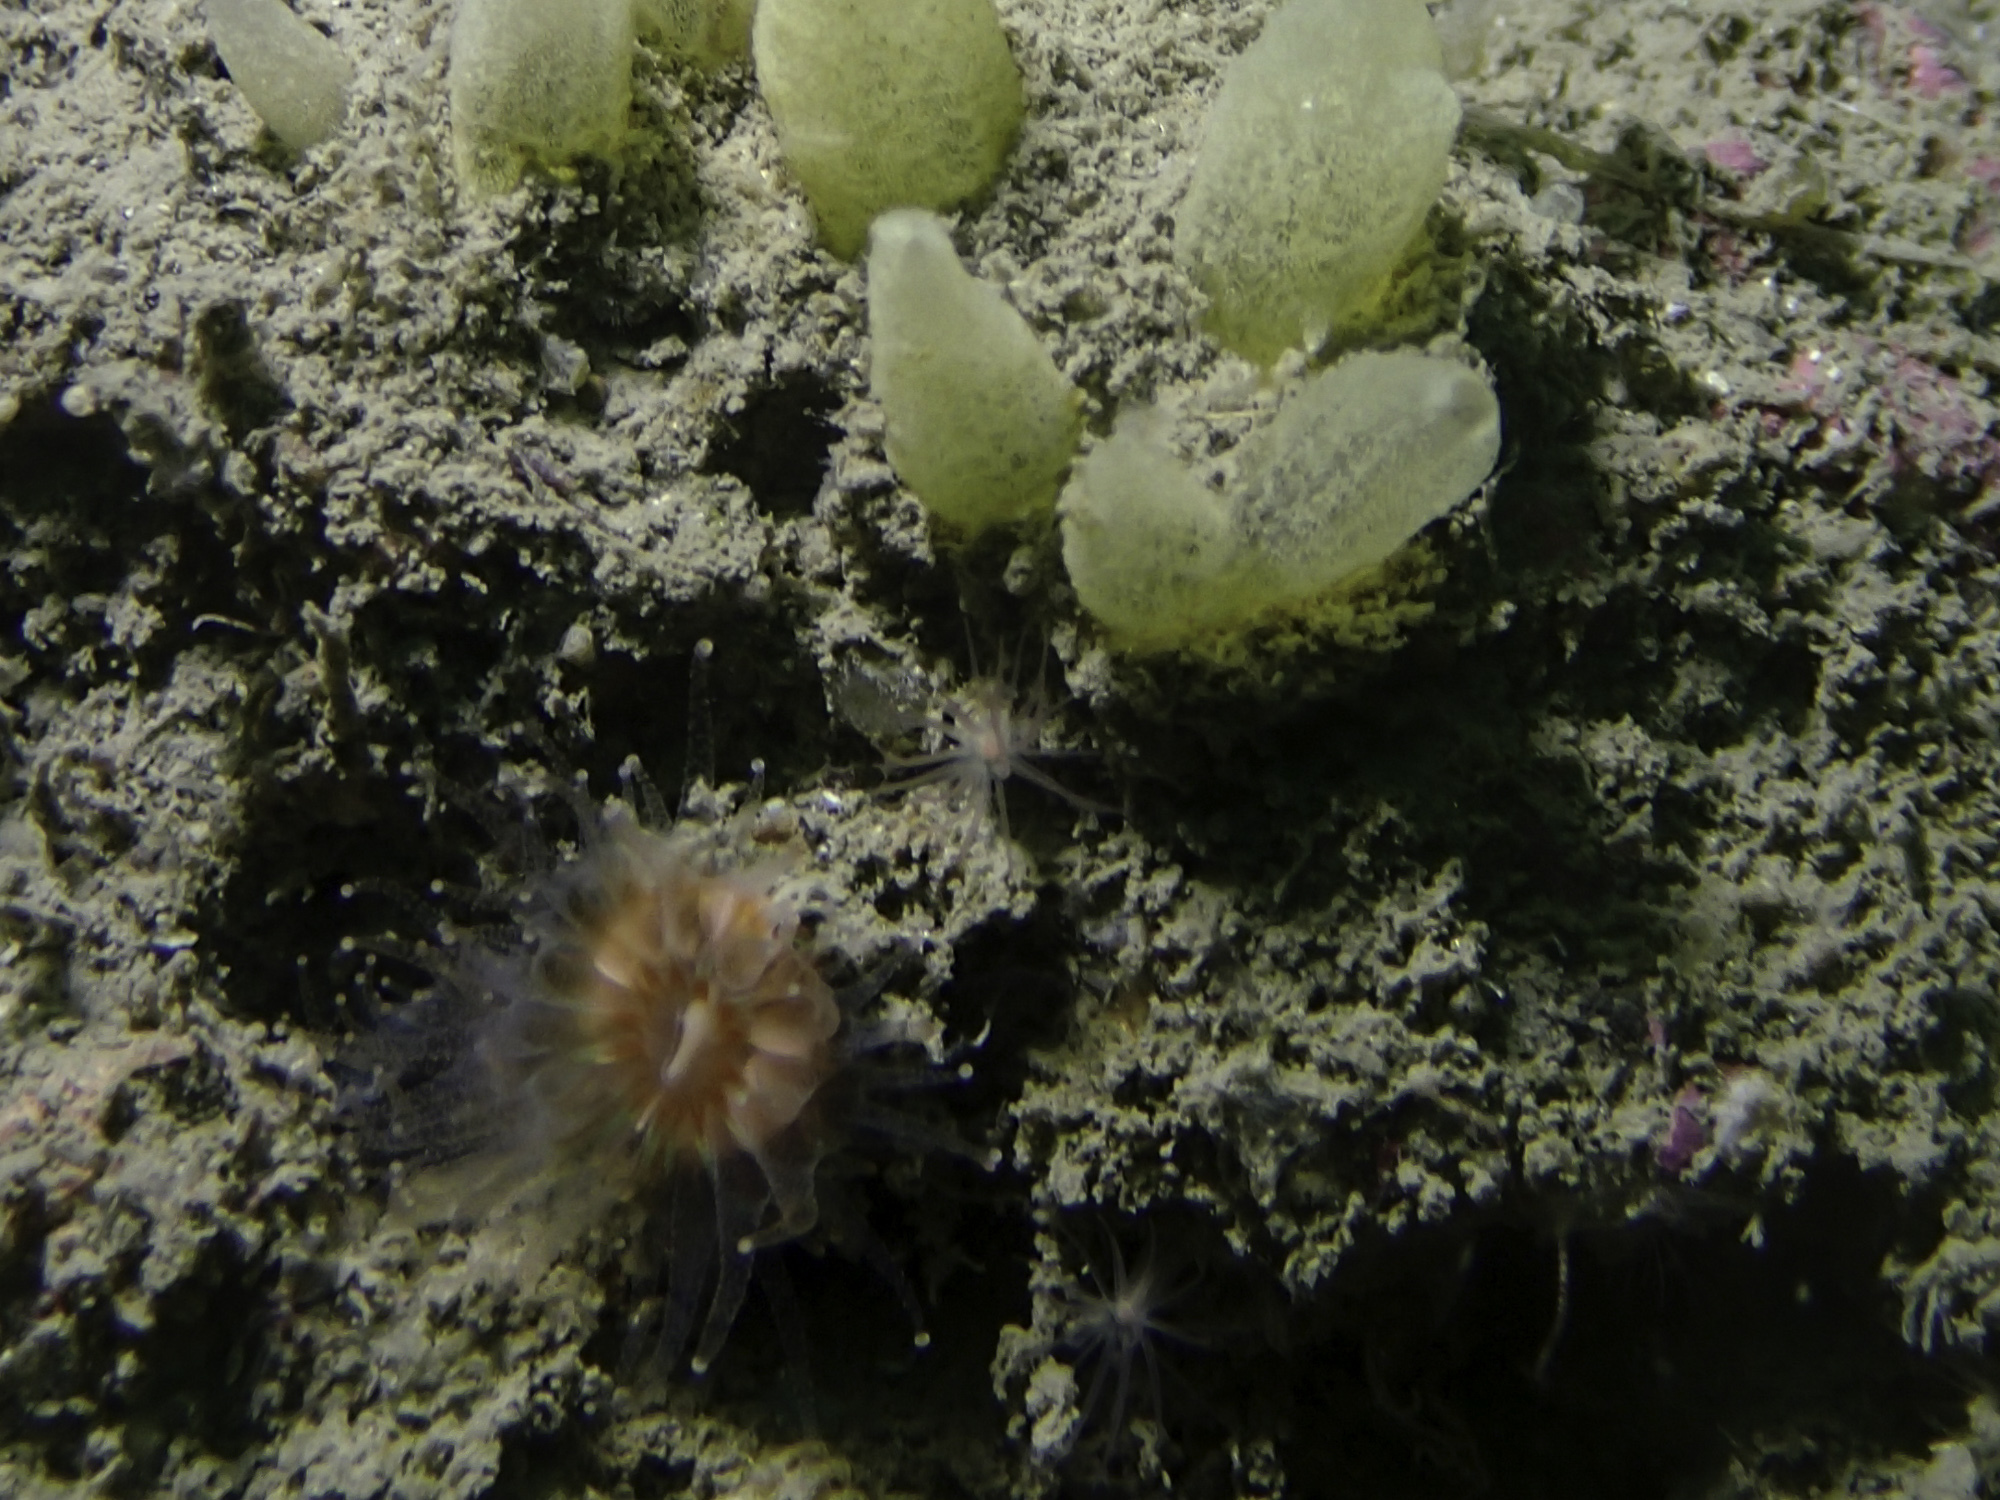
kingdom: Animalia
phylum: Cnidaria
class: Anthozoa
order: Actiniaria
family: Edwardsiidae
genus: Edwardsiella
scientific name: Edwardsiella carnea
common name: Worm anemone
